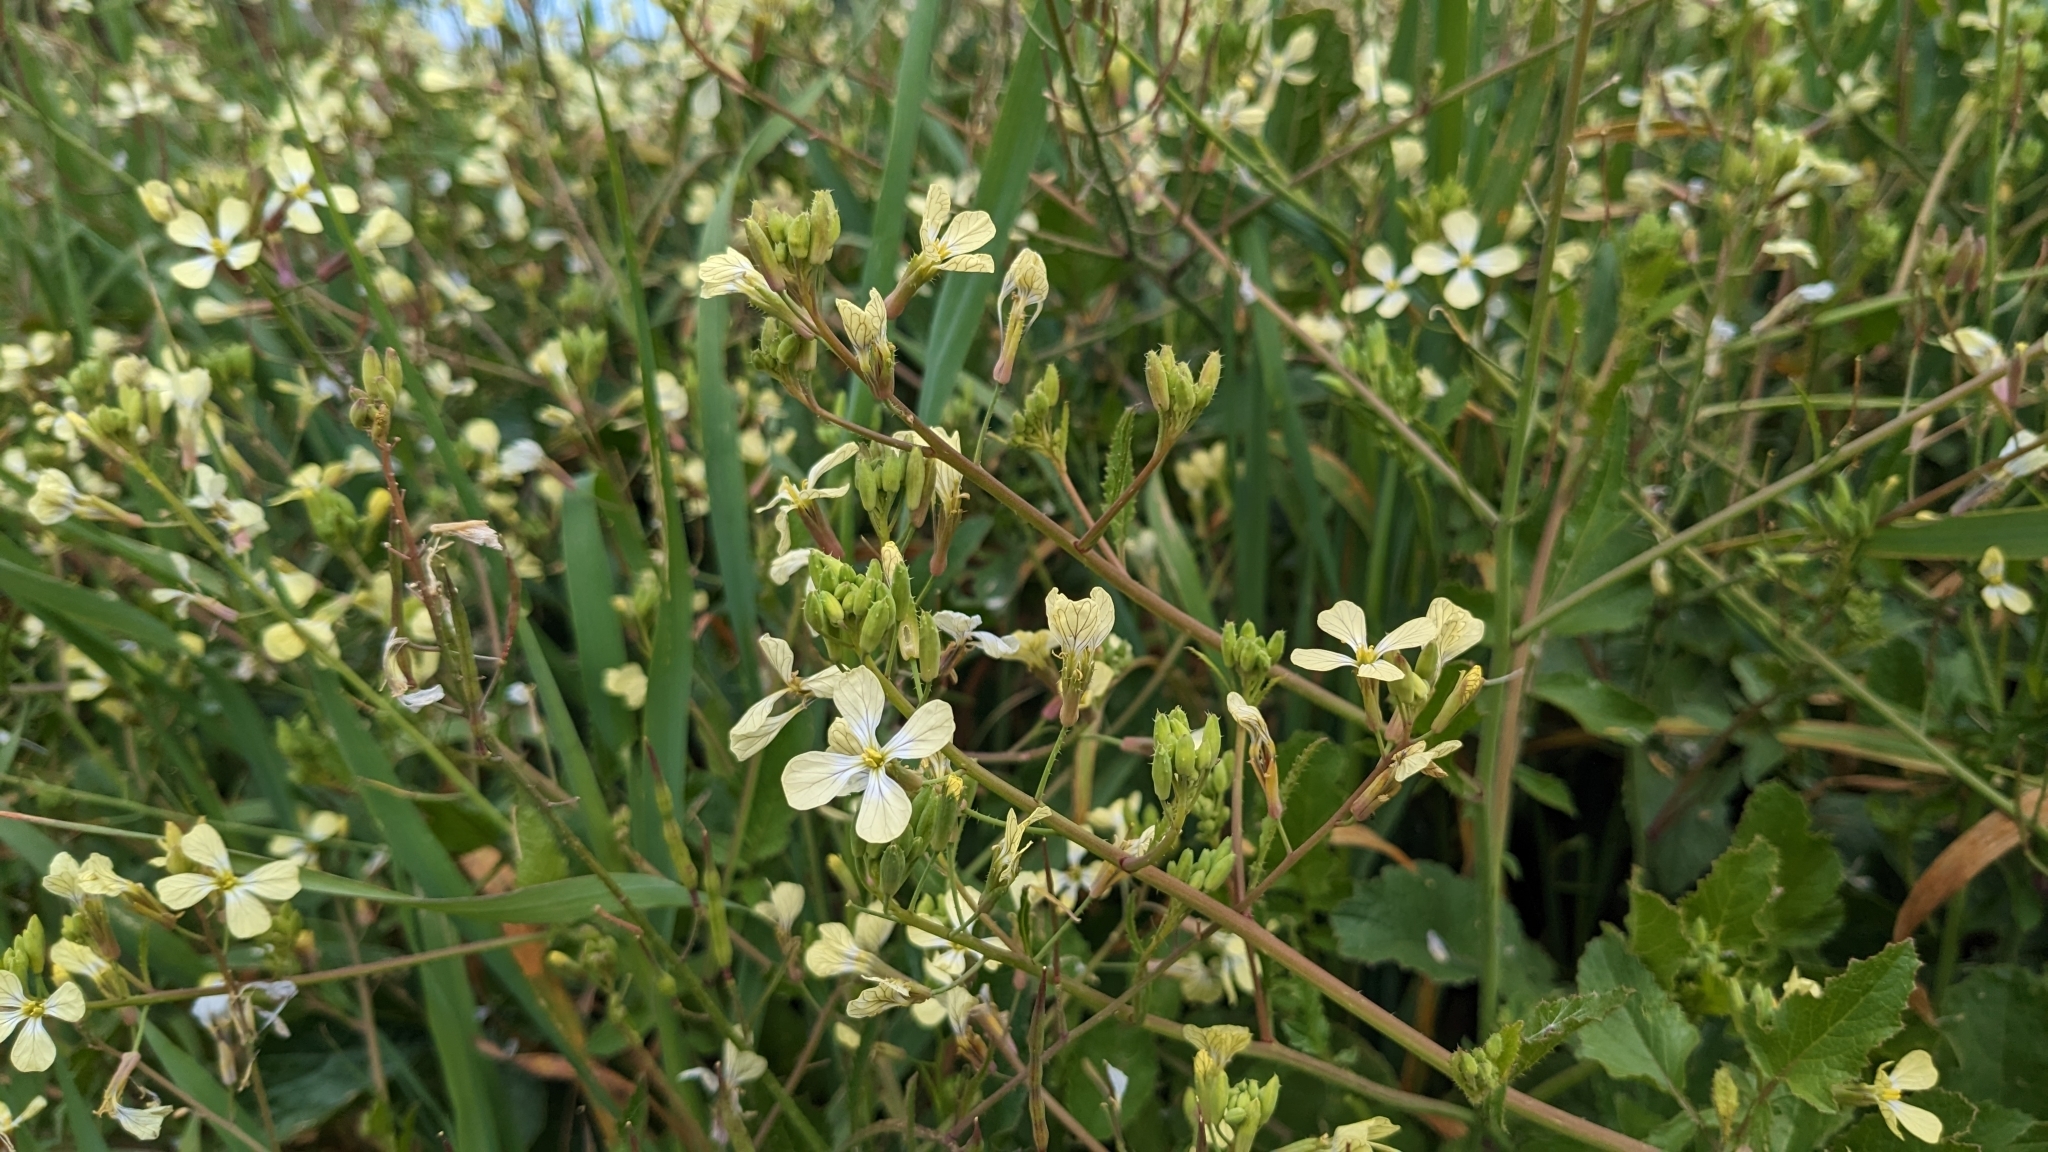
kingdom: Plantae
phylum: Tracheophyta
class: Magnoliopsida
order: Brassicales
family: Brassicaceae
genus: Raphanus
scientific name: Raphanus raphanistrum
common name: Wild radish
